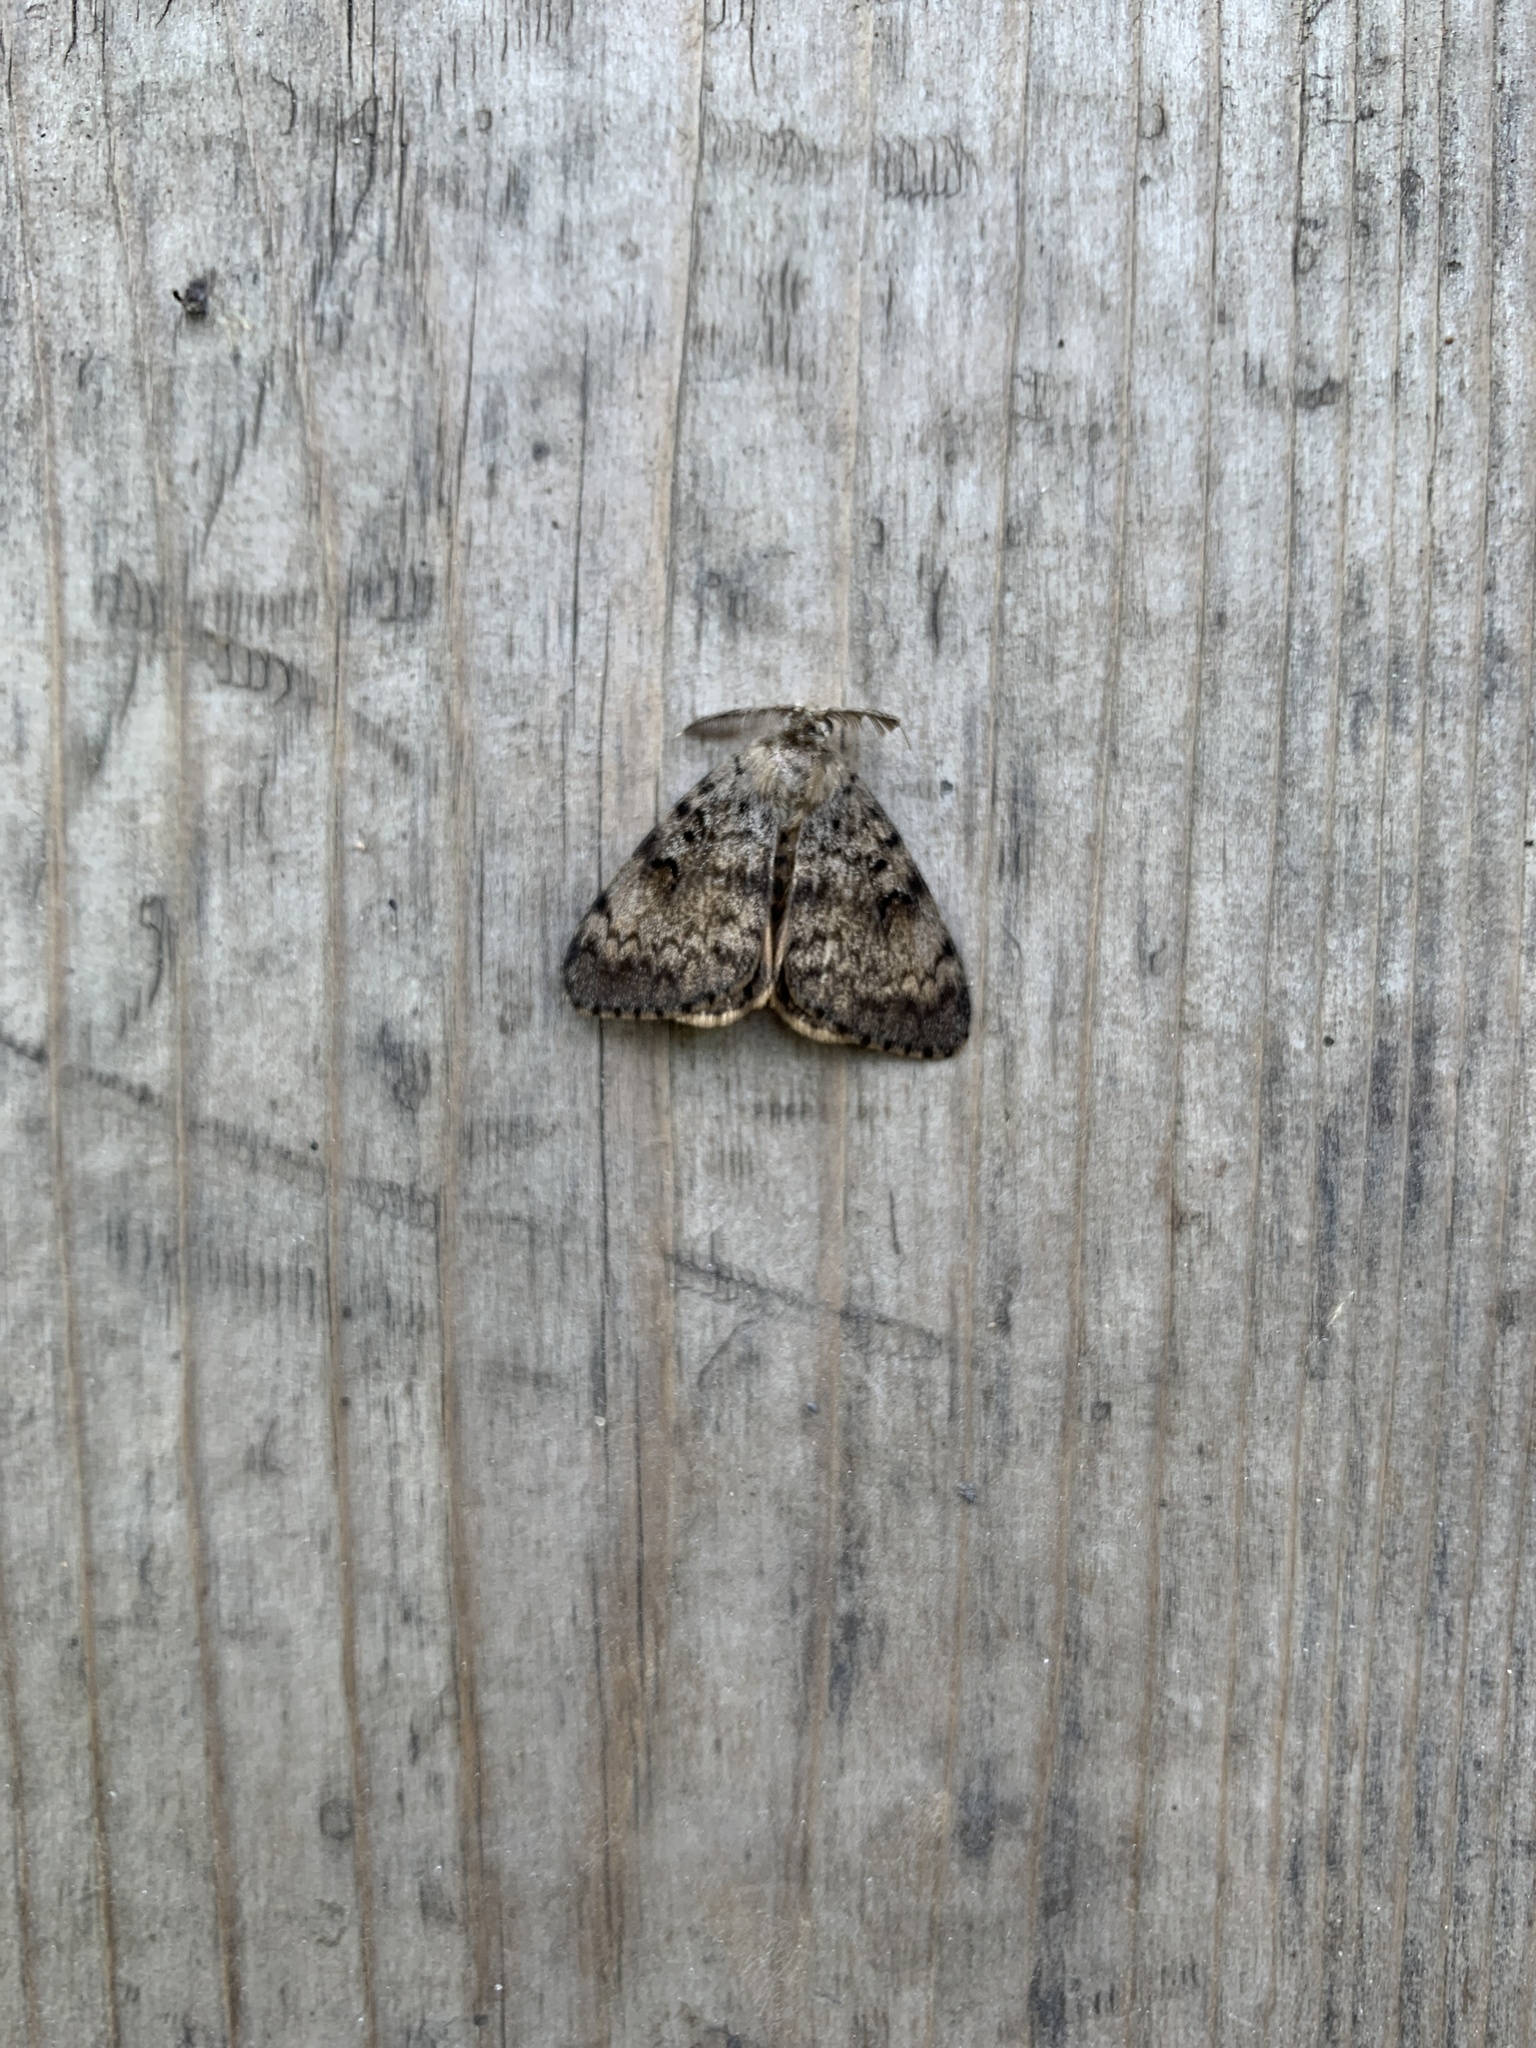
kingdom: Animalia
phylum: Arthropoda
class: Insecta
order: Lepidoptera
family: Erebidae
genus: Lymantria
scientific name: Lymantria dispar
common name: Gypsy moth
